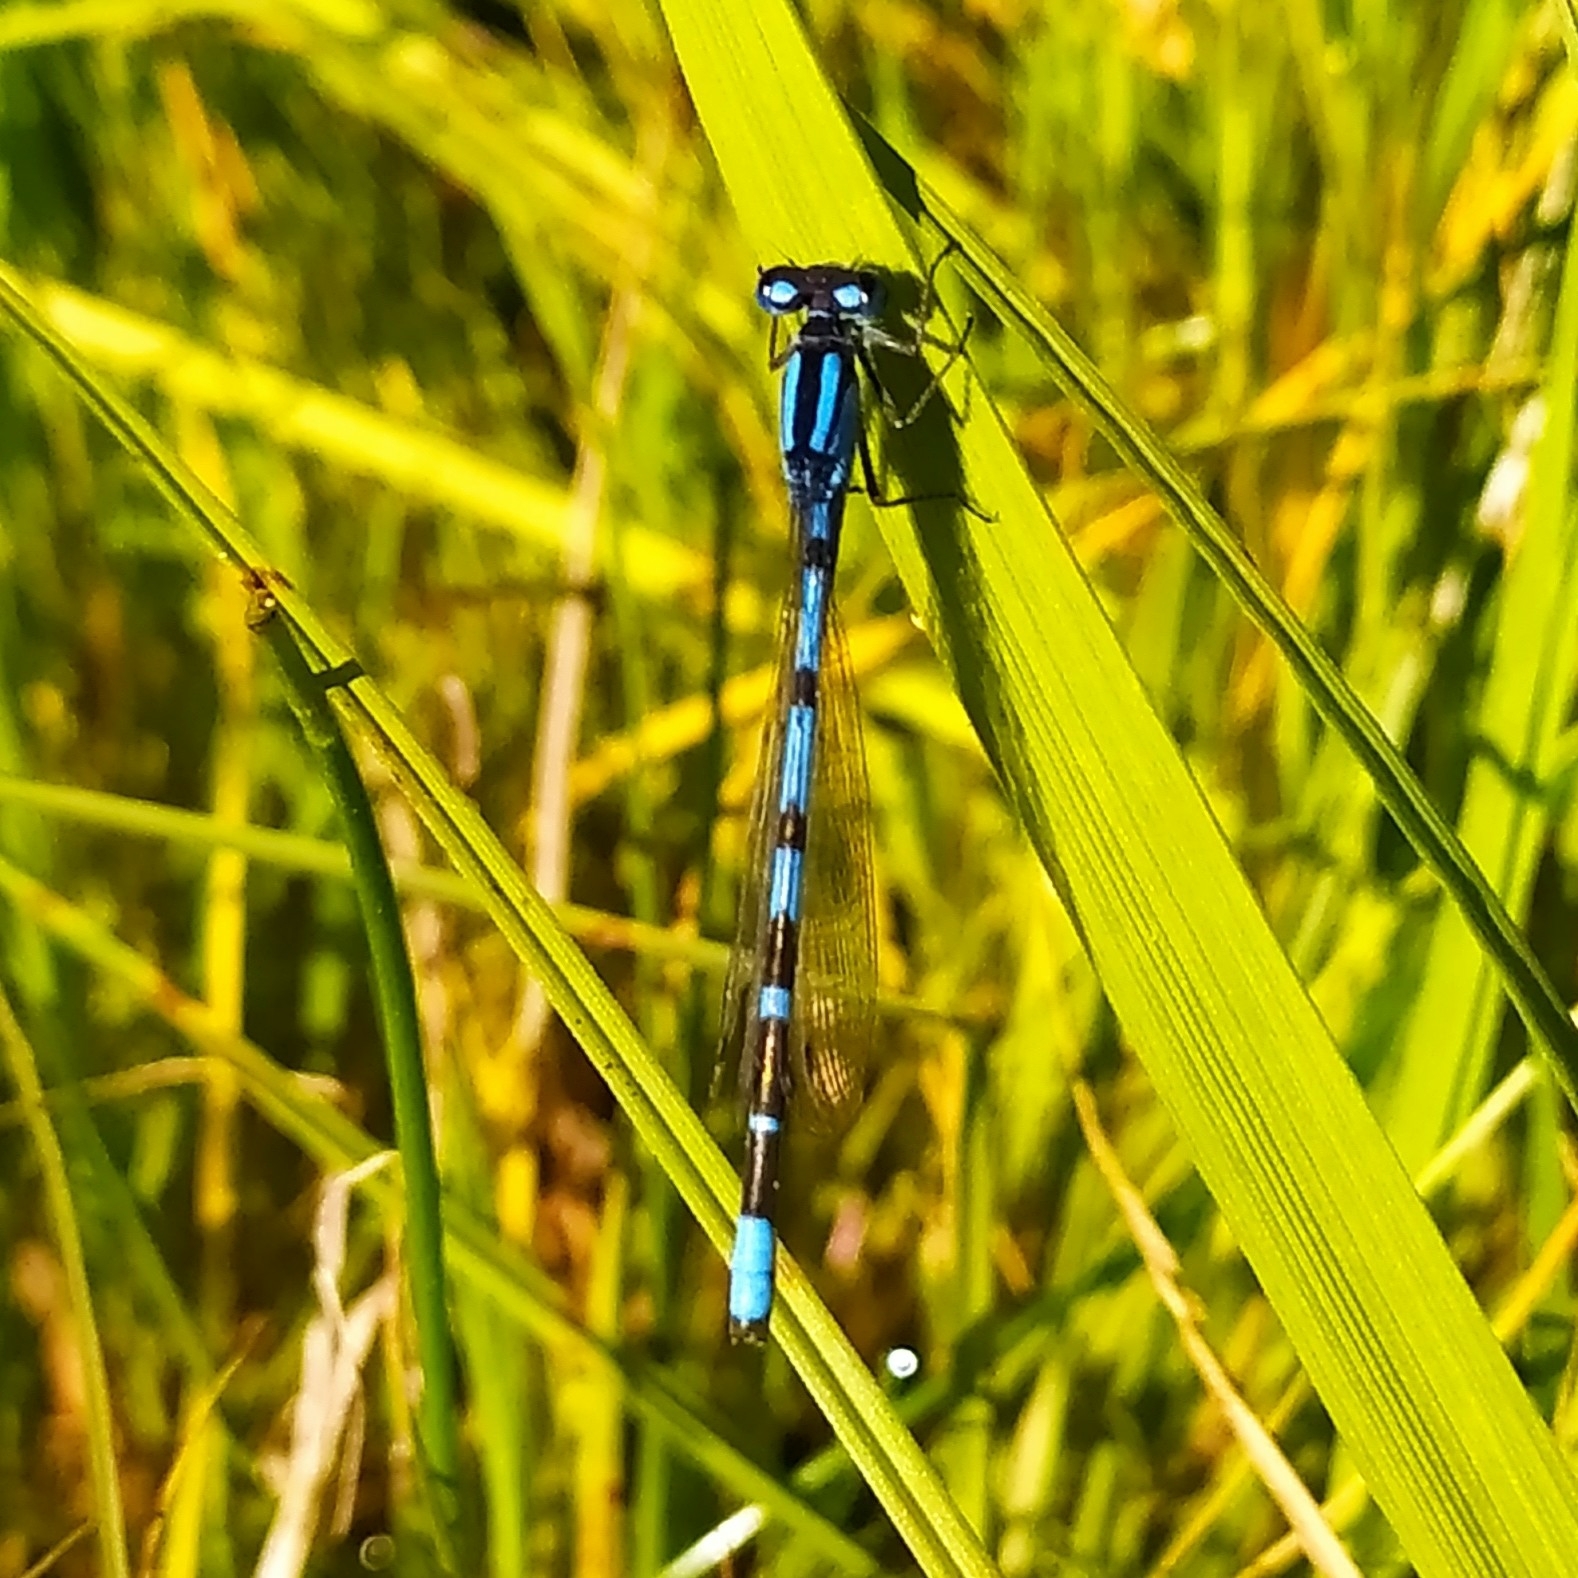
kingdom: Animalia
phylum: Arthropoda
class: Insecta
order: Odonata
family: Coenagrionidae
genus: Enallagma
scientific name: Enallagma cyathigerum
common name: Common blue damselfly
